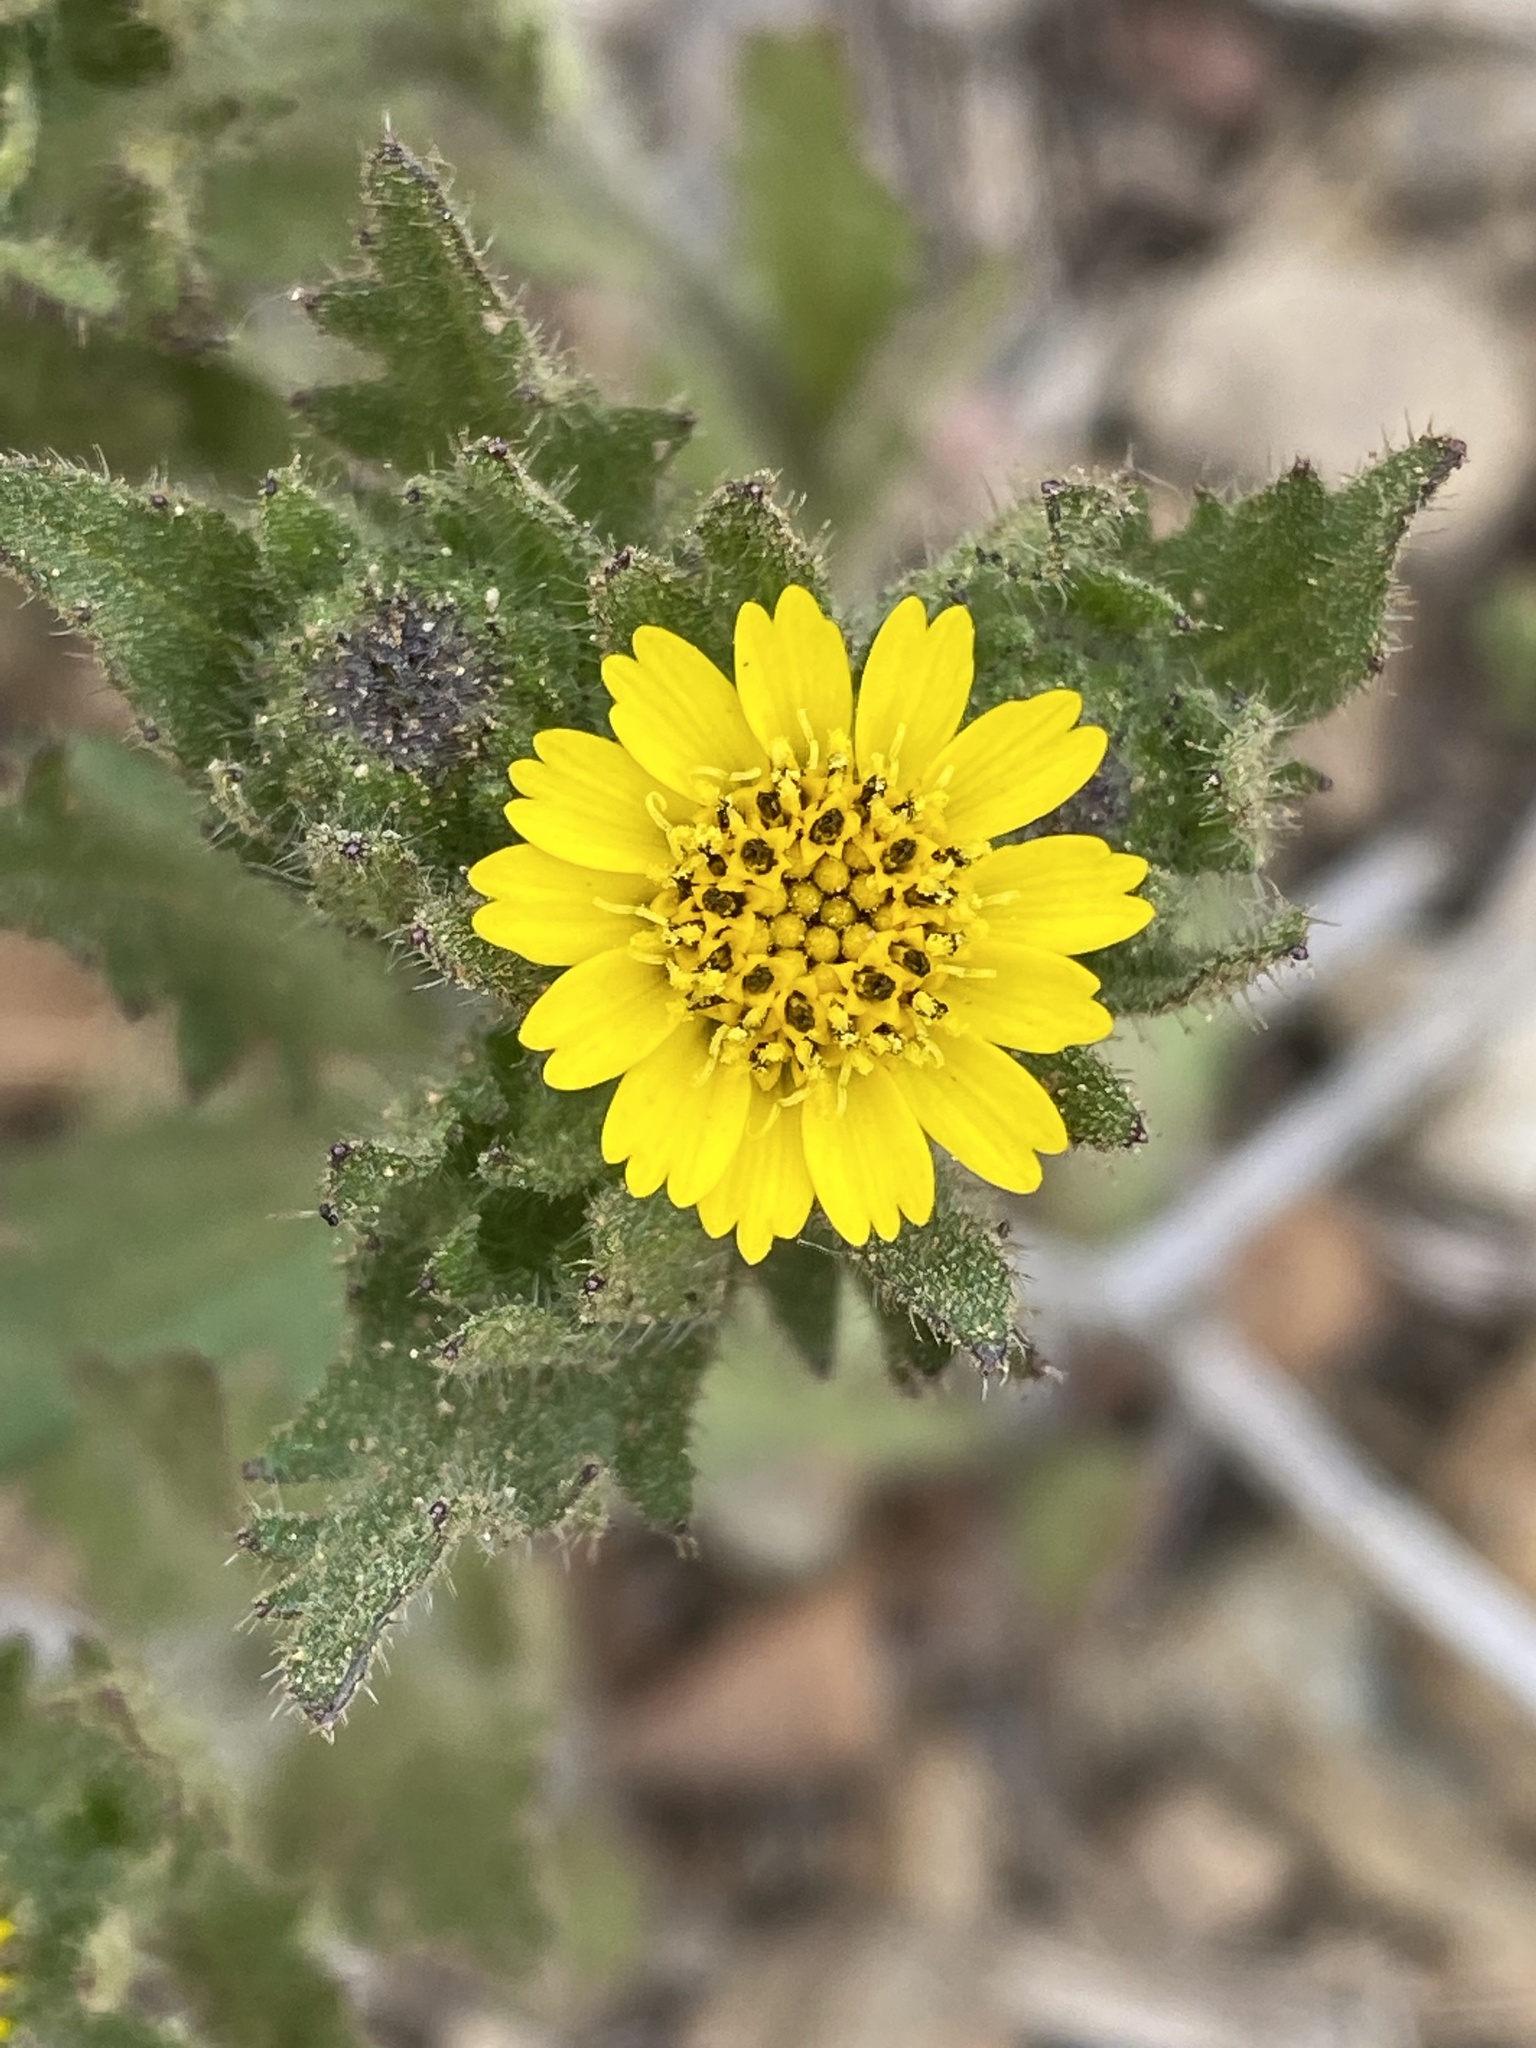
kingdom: Plantae
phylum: Tracheophyta
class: Magnoliopsida
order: Asterales
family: Asteraceae
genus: Layia
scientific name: Layia hieracioides
